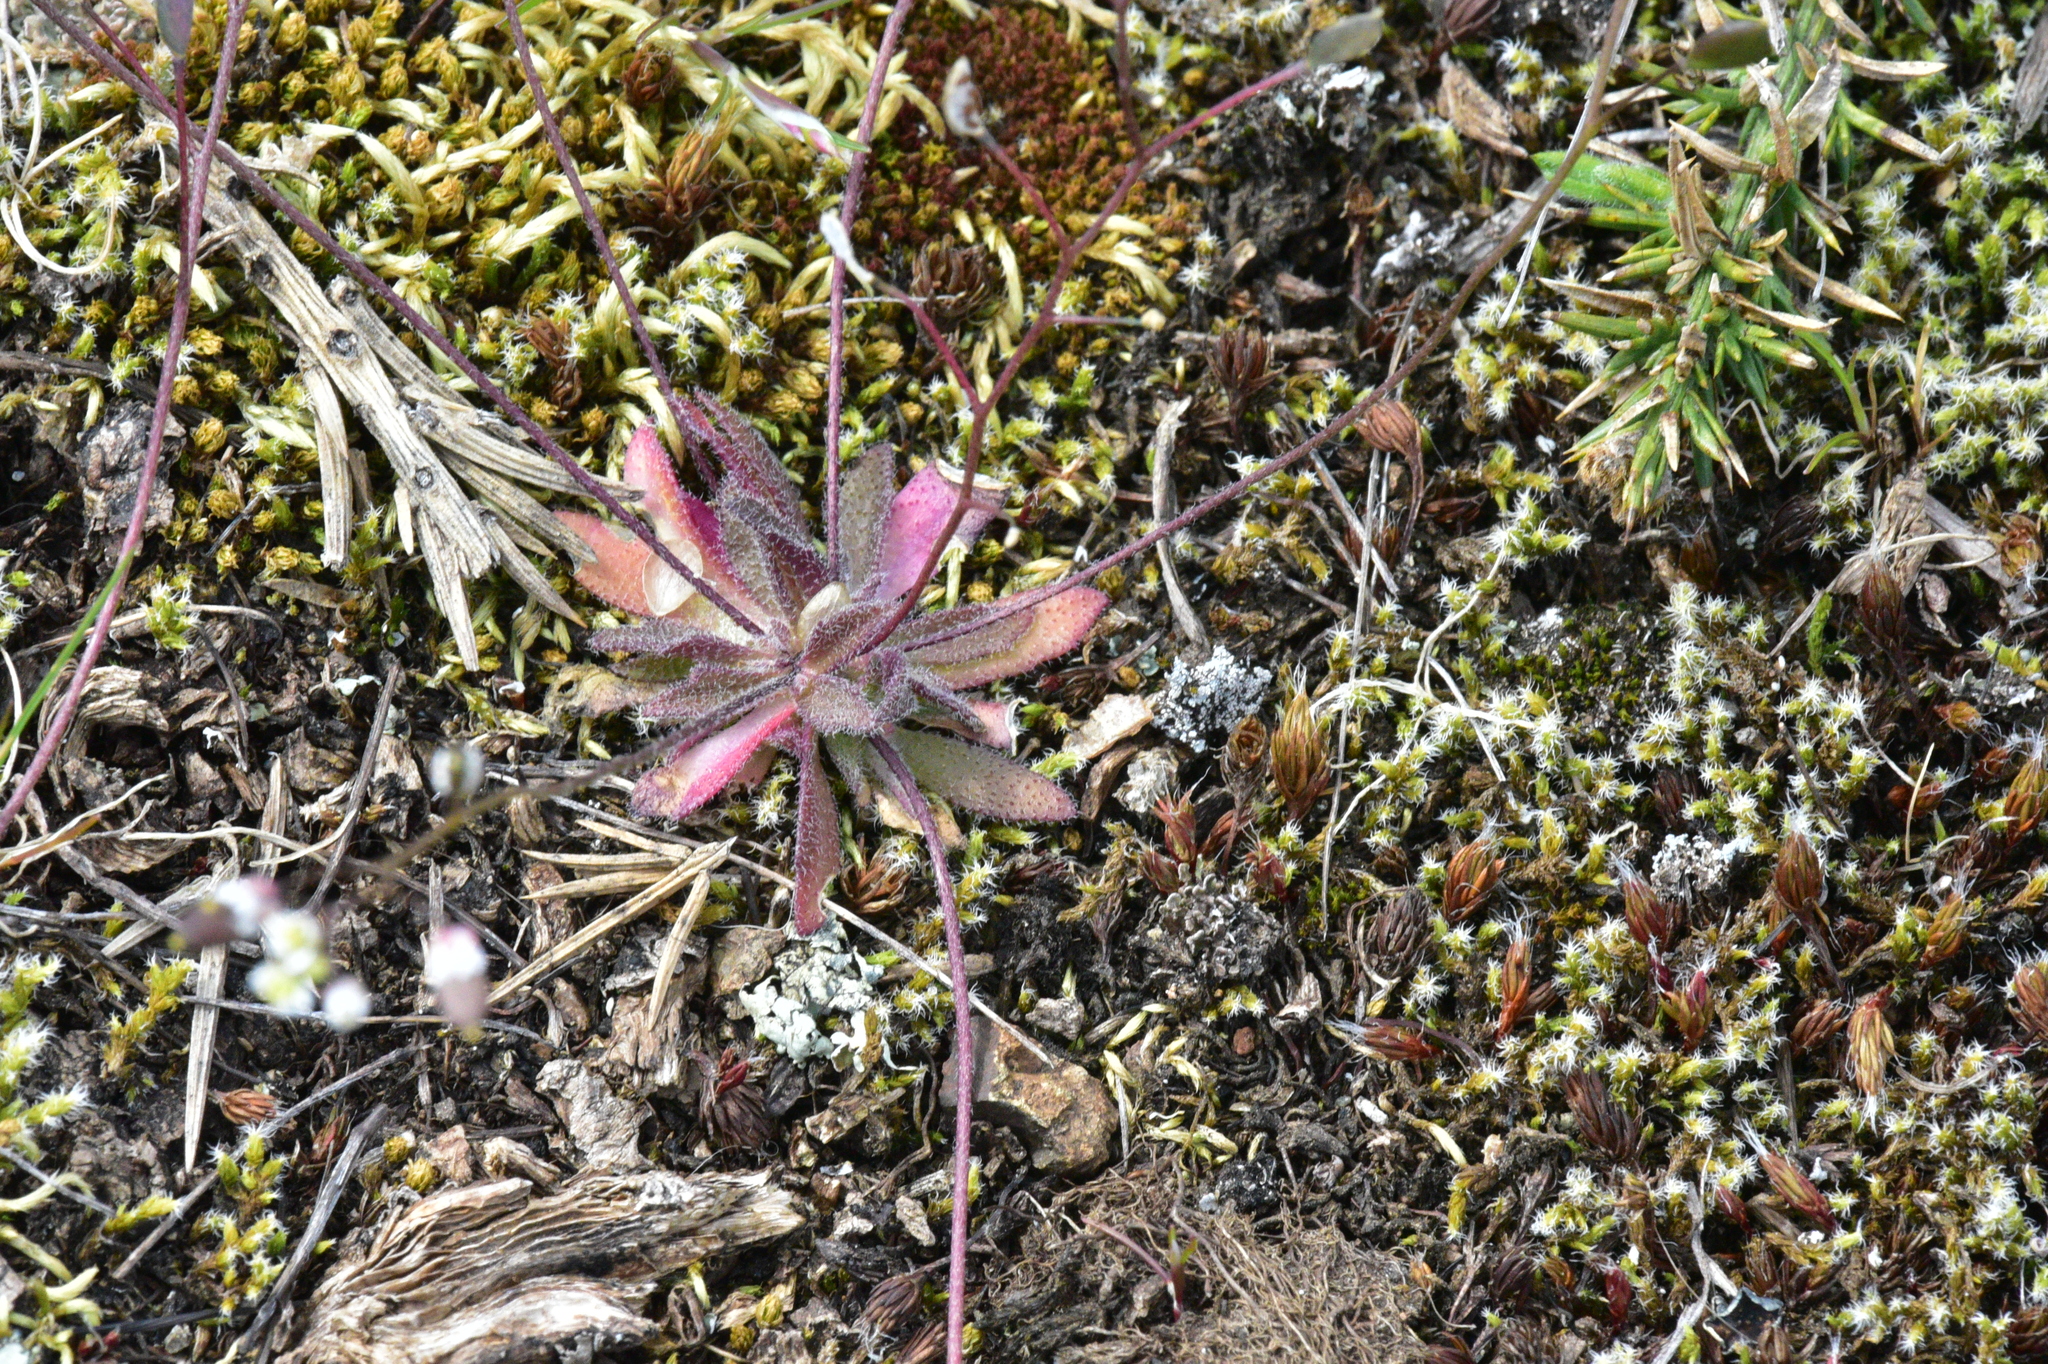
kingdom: Plantae
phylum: Tracheophyta
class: Magnoliopsida
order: Brassicales
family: Brassicaceae
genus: Draba
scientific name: Draba verna
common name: Spring draba
